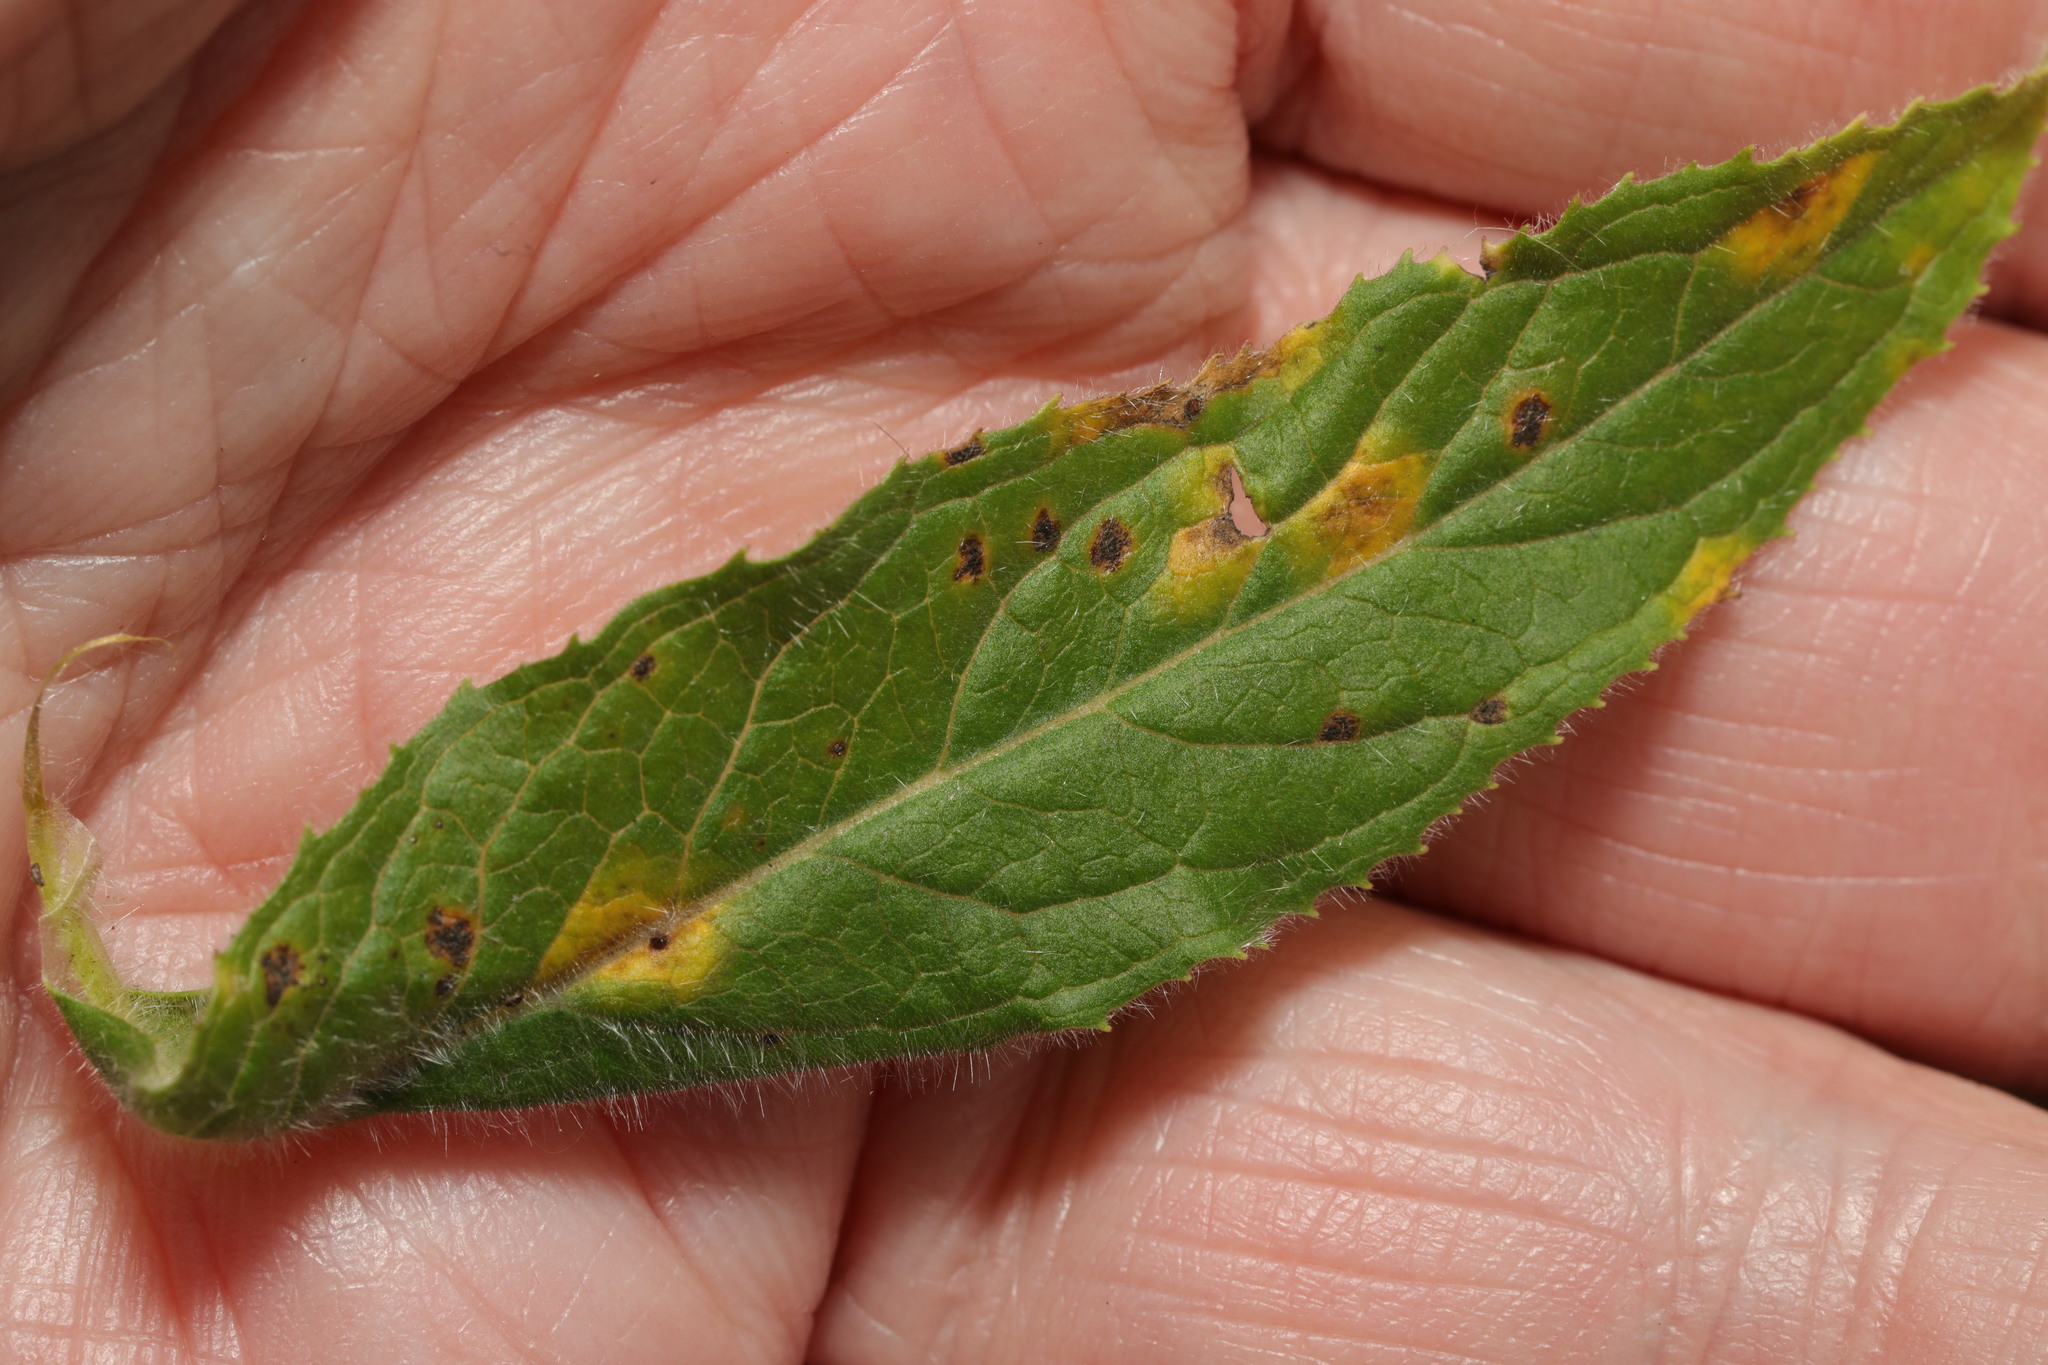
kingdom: Fungi
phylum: Basidiomycota
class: Pucciniomycetes
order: Pucciniales
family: Pucciniaceae
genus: Puccinia
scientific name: Puccinia pulverulenta
